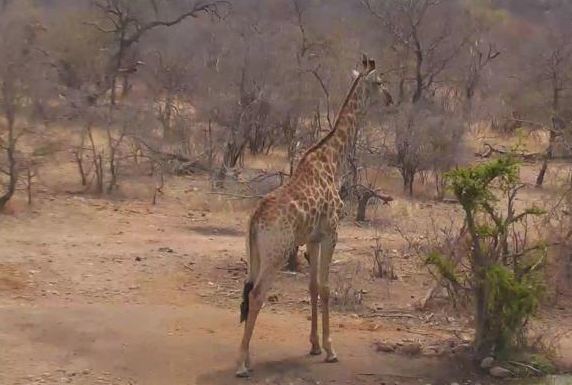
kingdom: Animalia
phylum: Chordata
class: Mammalia
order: Artiodactyla
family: Giraffidae
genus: Giraffa
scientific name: Giraffa giraffa
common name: Southern giraffe
